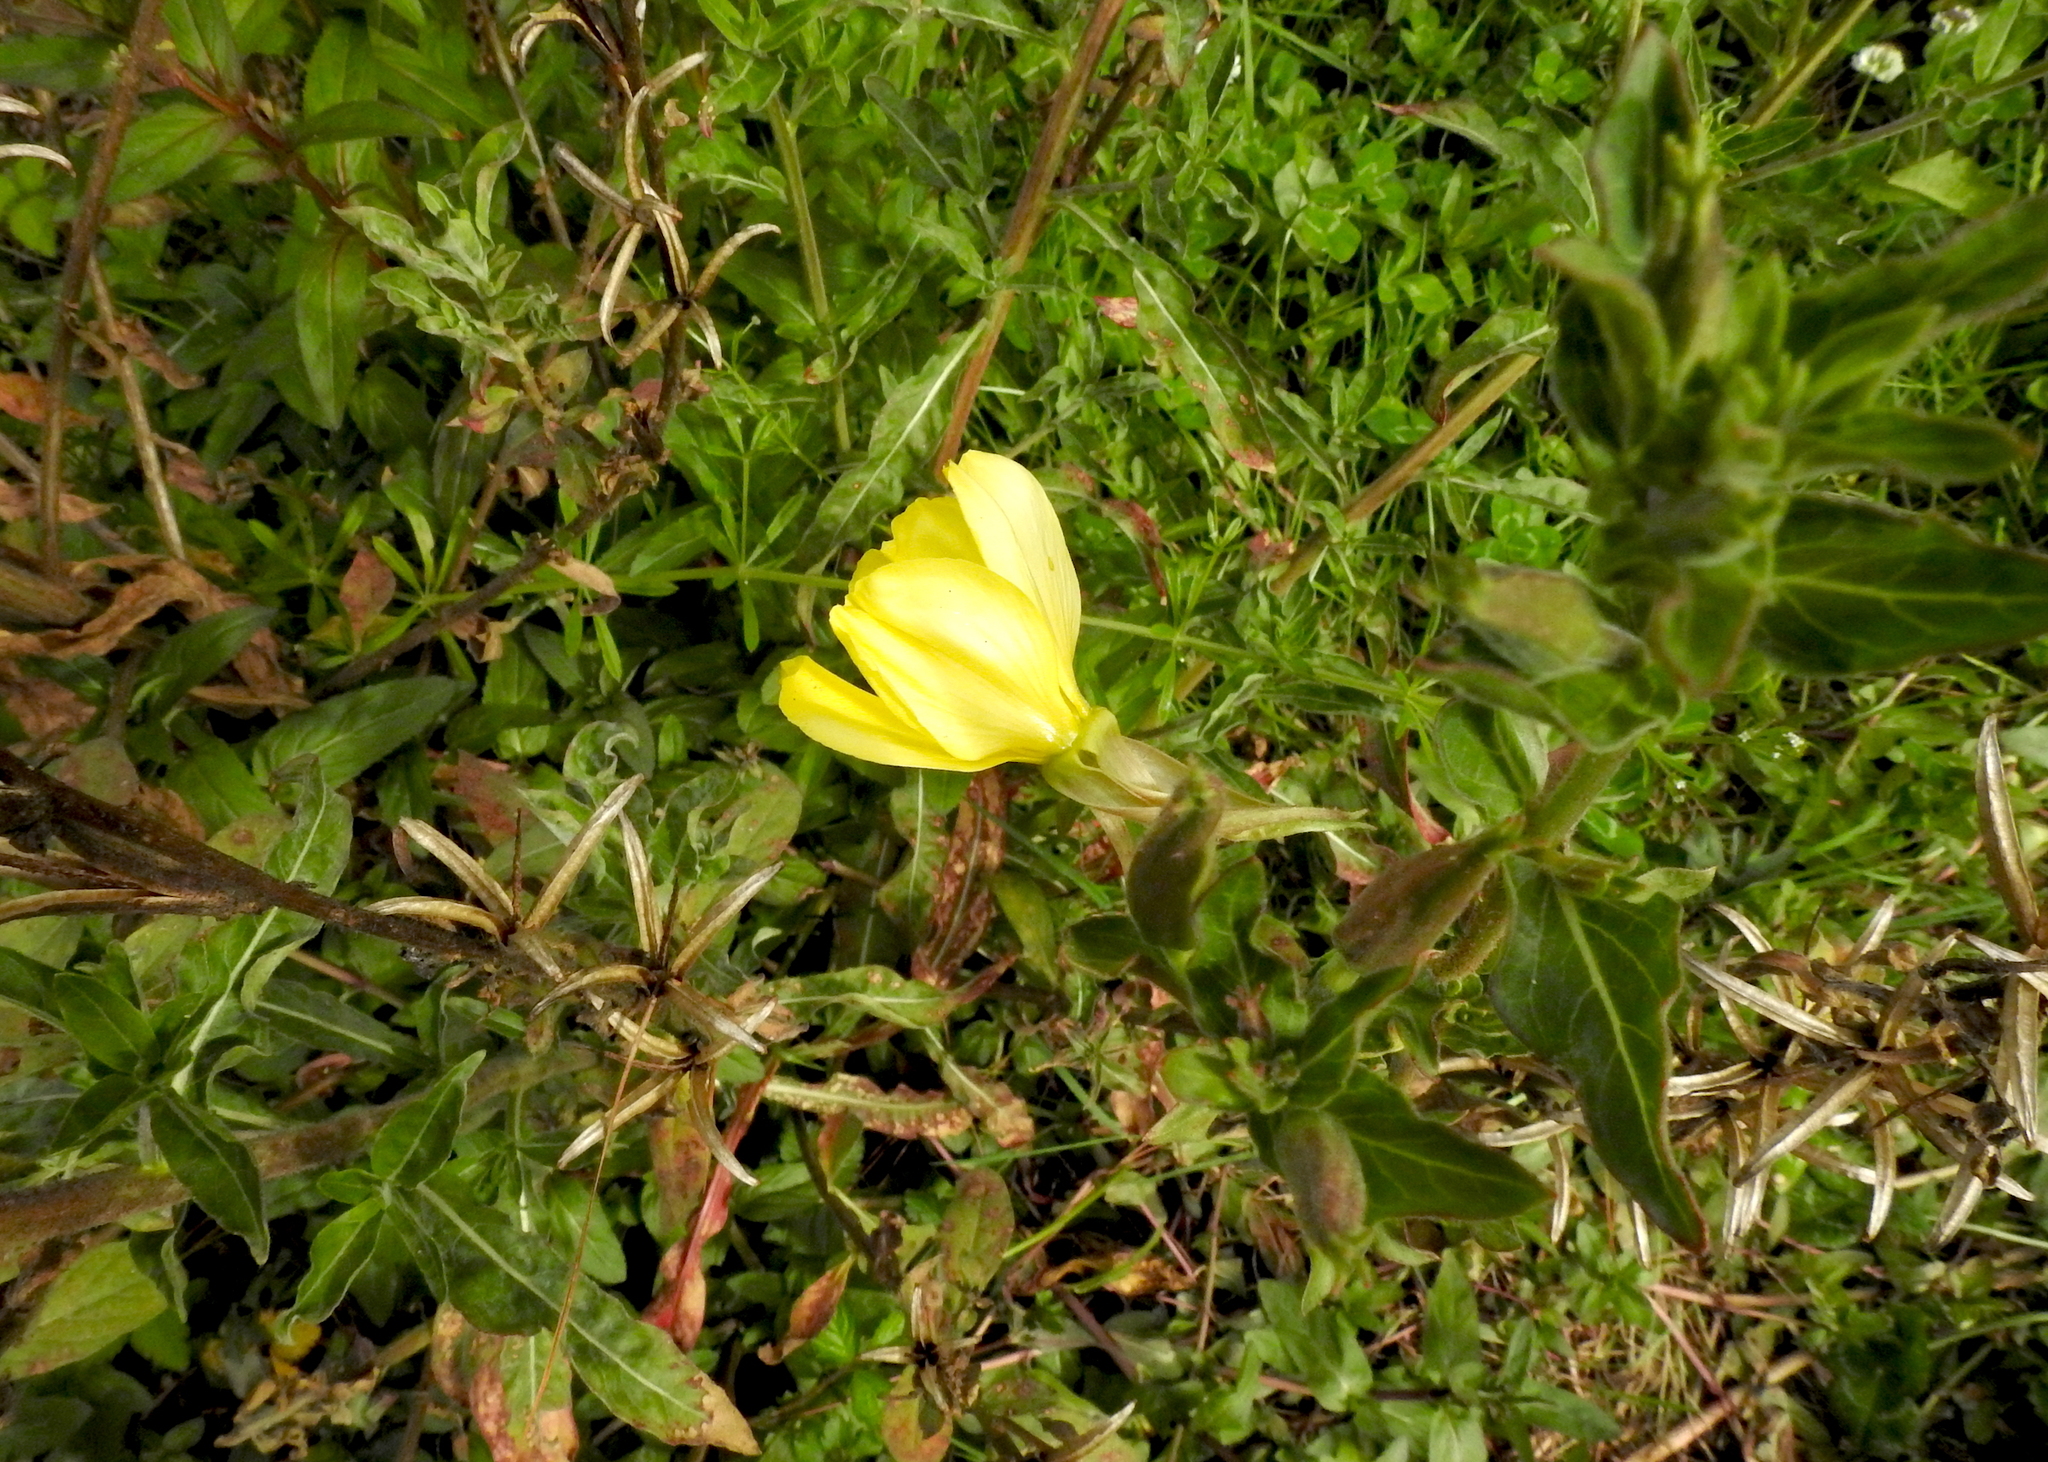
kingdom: Plantae
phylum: Tracheophyta
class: Magnoliopsida
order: Myrtales
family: Onagraceae
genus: Oenothera
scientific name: Oenothera elata
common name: Hooker's evening-primrose
